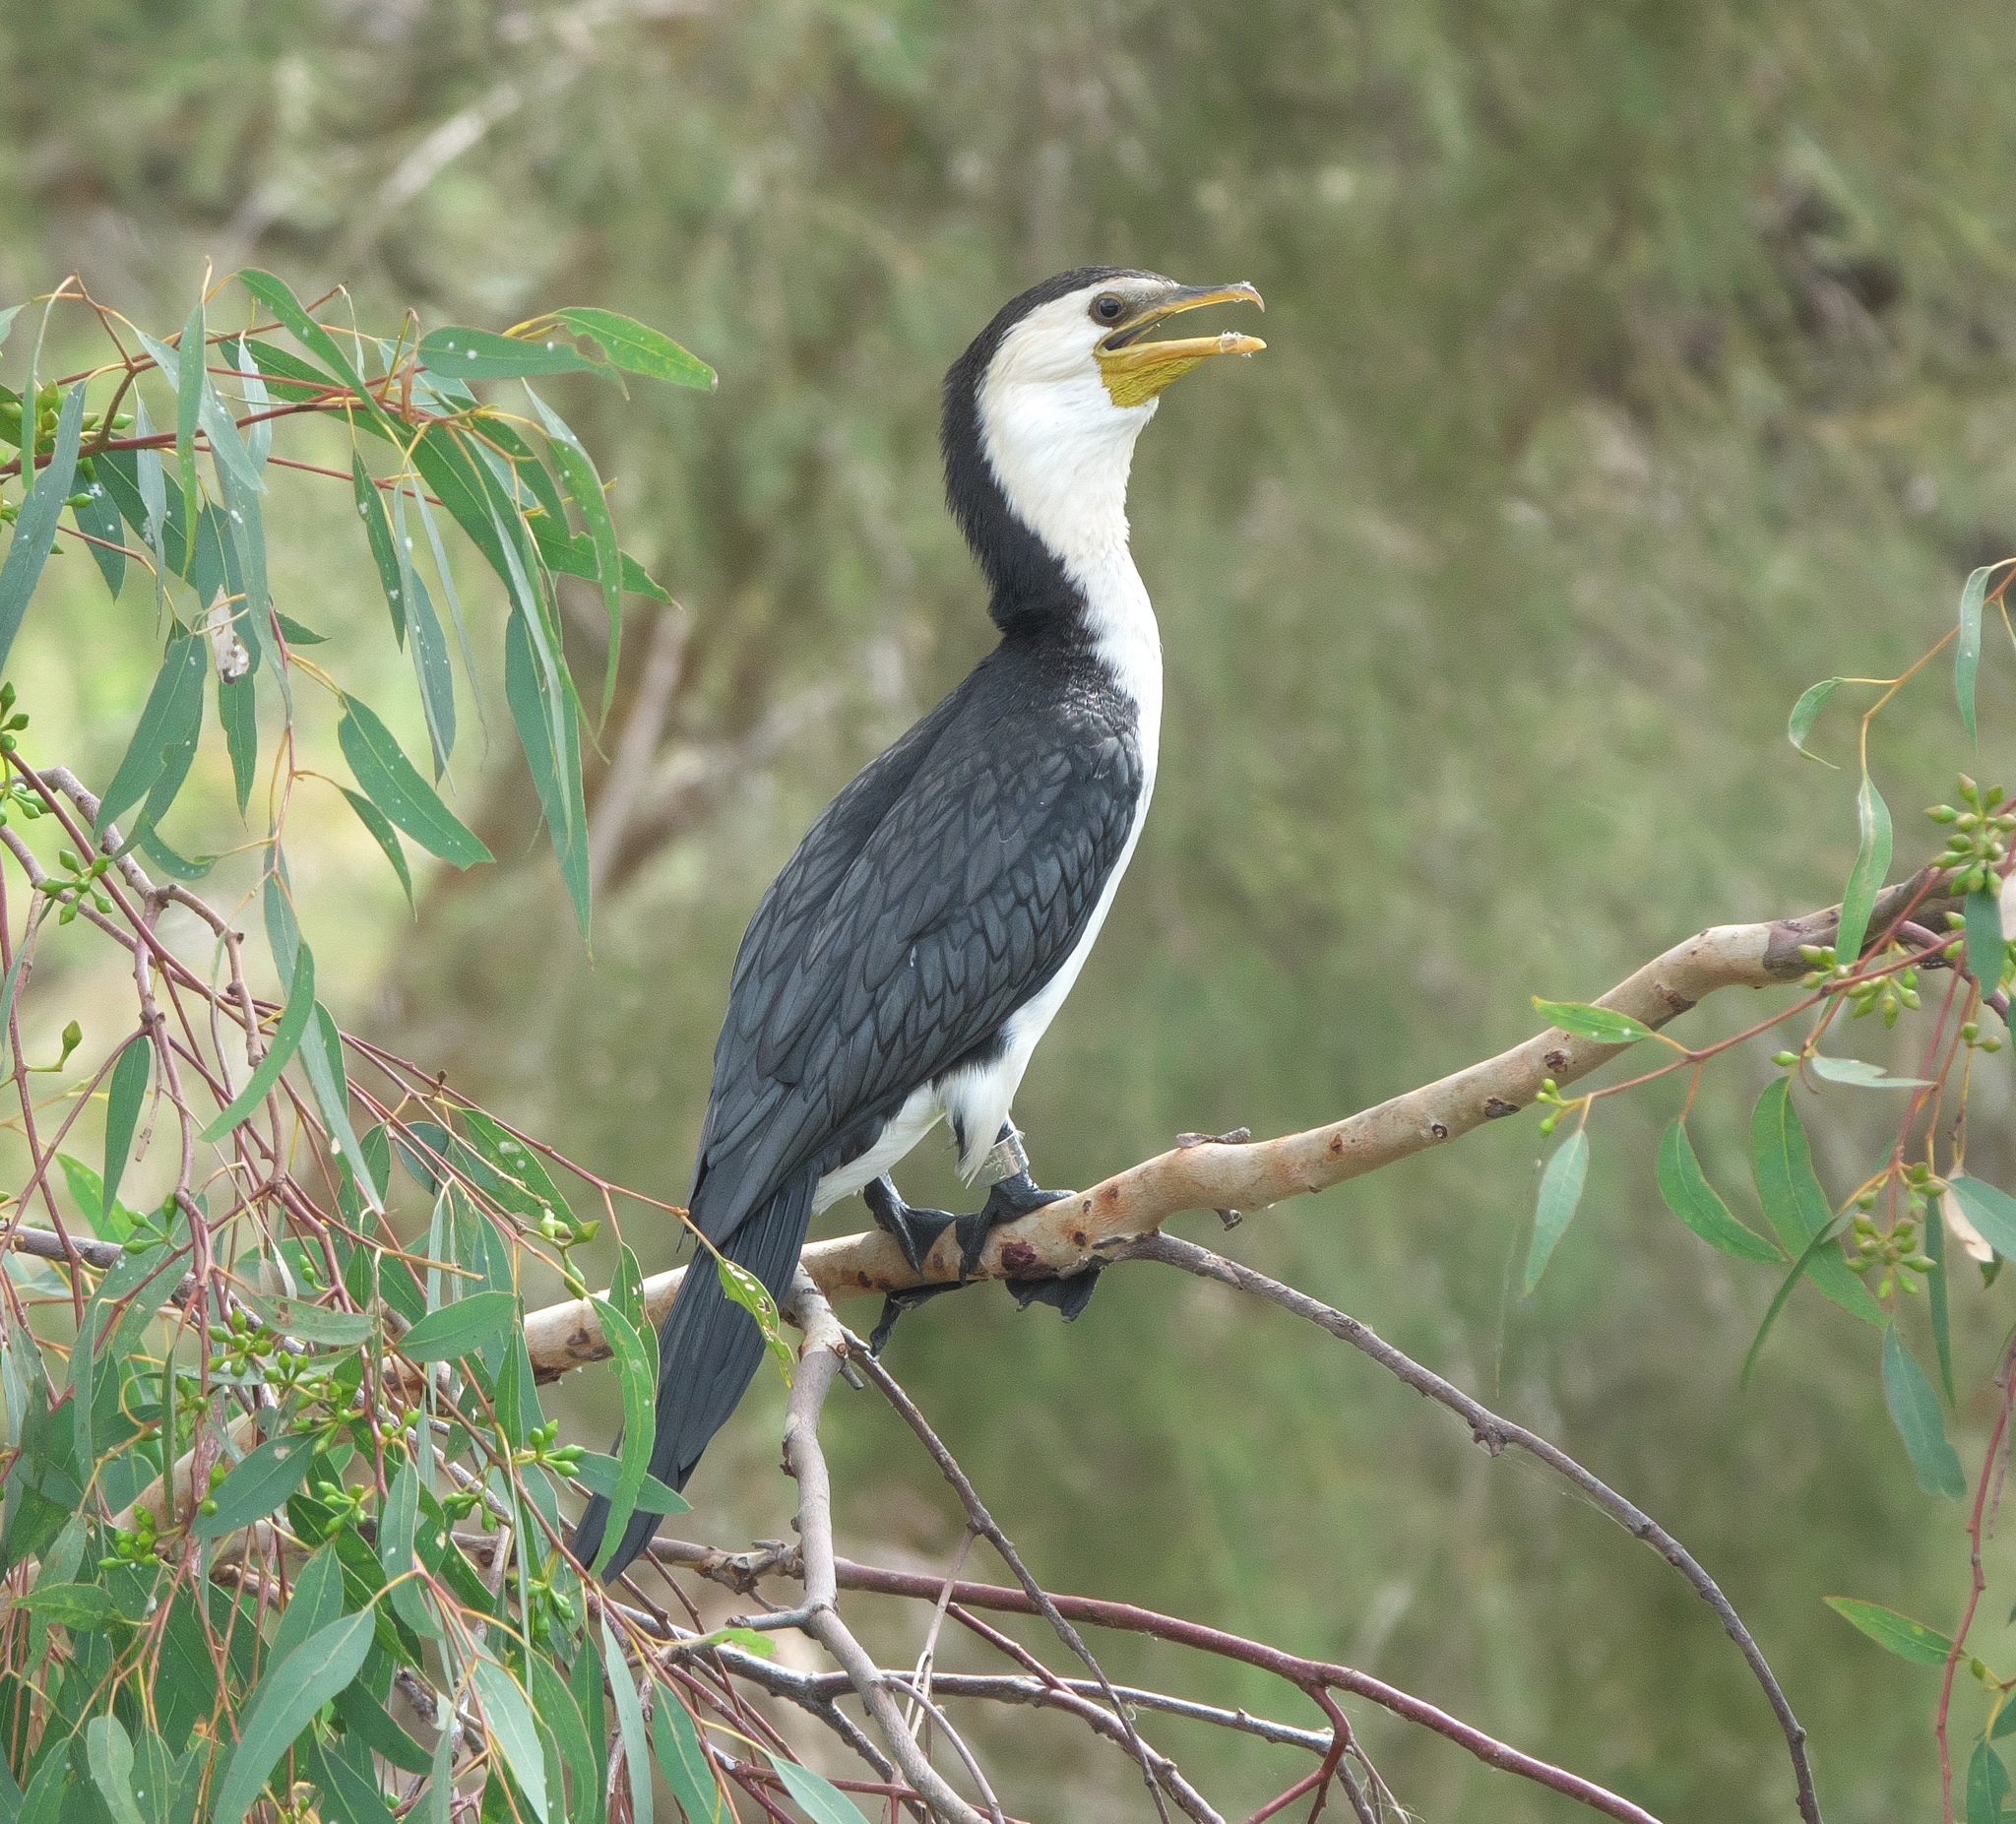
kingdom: Animalia
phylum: Chordata
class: Aves
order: Suliformes
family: Phalacrocoracidae
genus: Microcarbo
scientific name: Microcarbo melanoleucos
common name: Little pied cormorant
